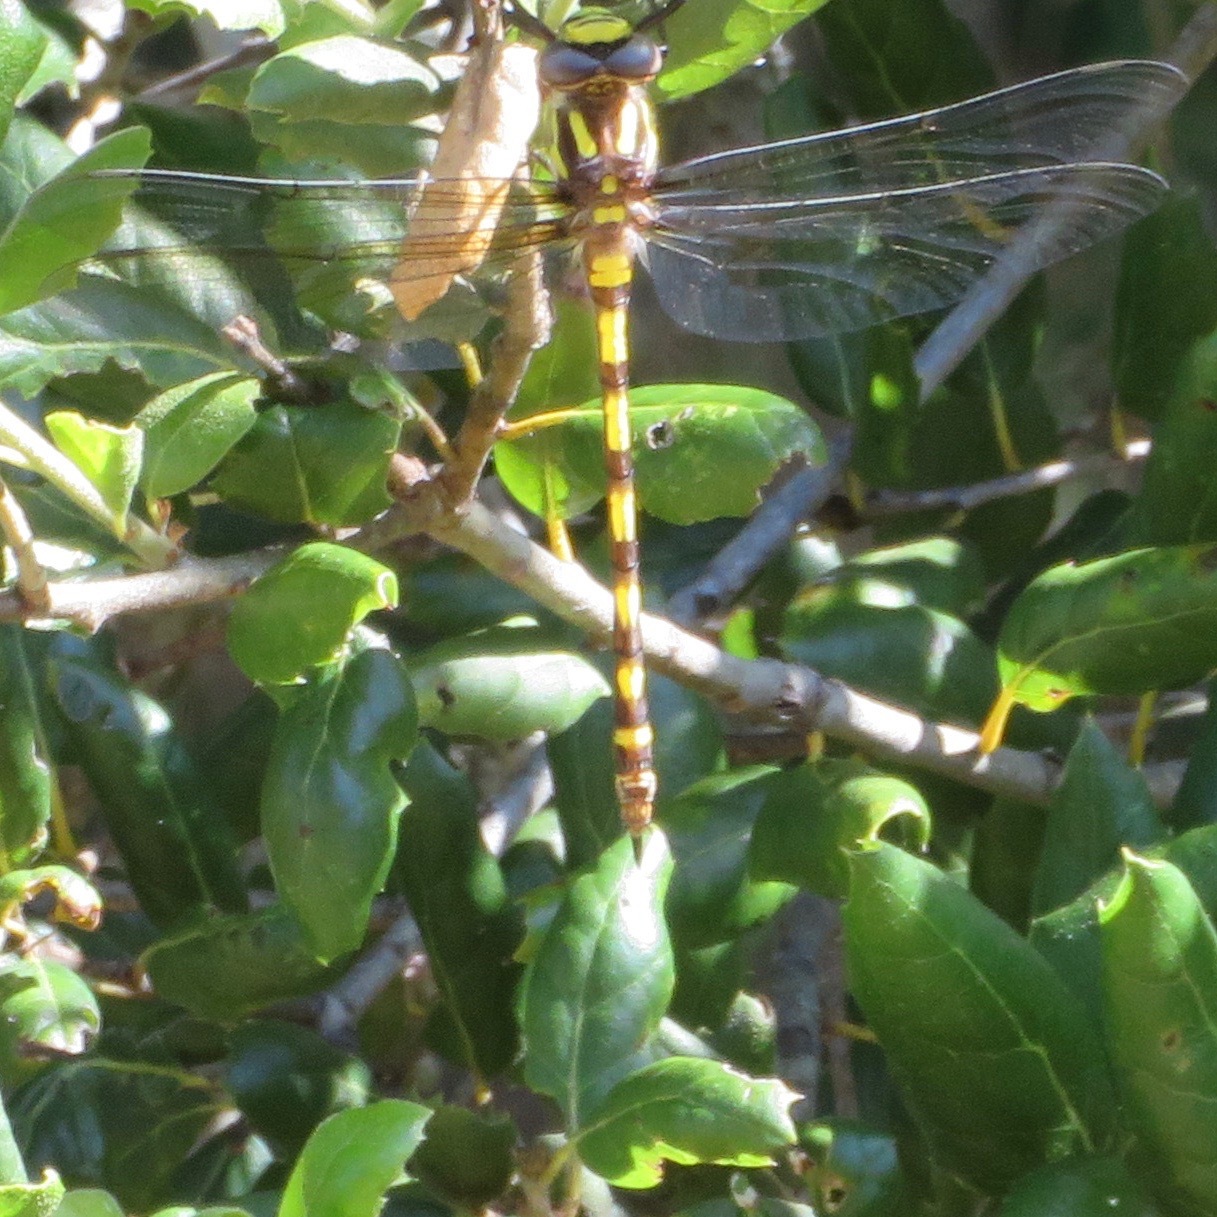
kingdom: Animalia
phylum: Arthropoda
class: Insecta
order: Odonata
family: Cordulegastridae
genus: Cordulegaster
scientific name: Cordulegaster dorsalis
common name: Pacific spiketail
